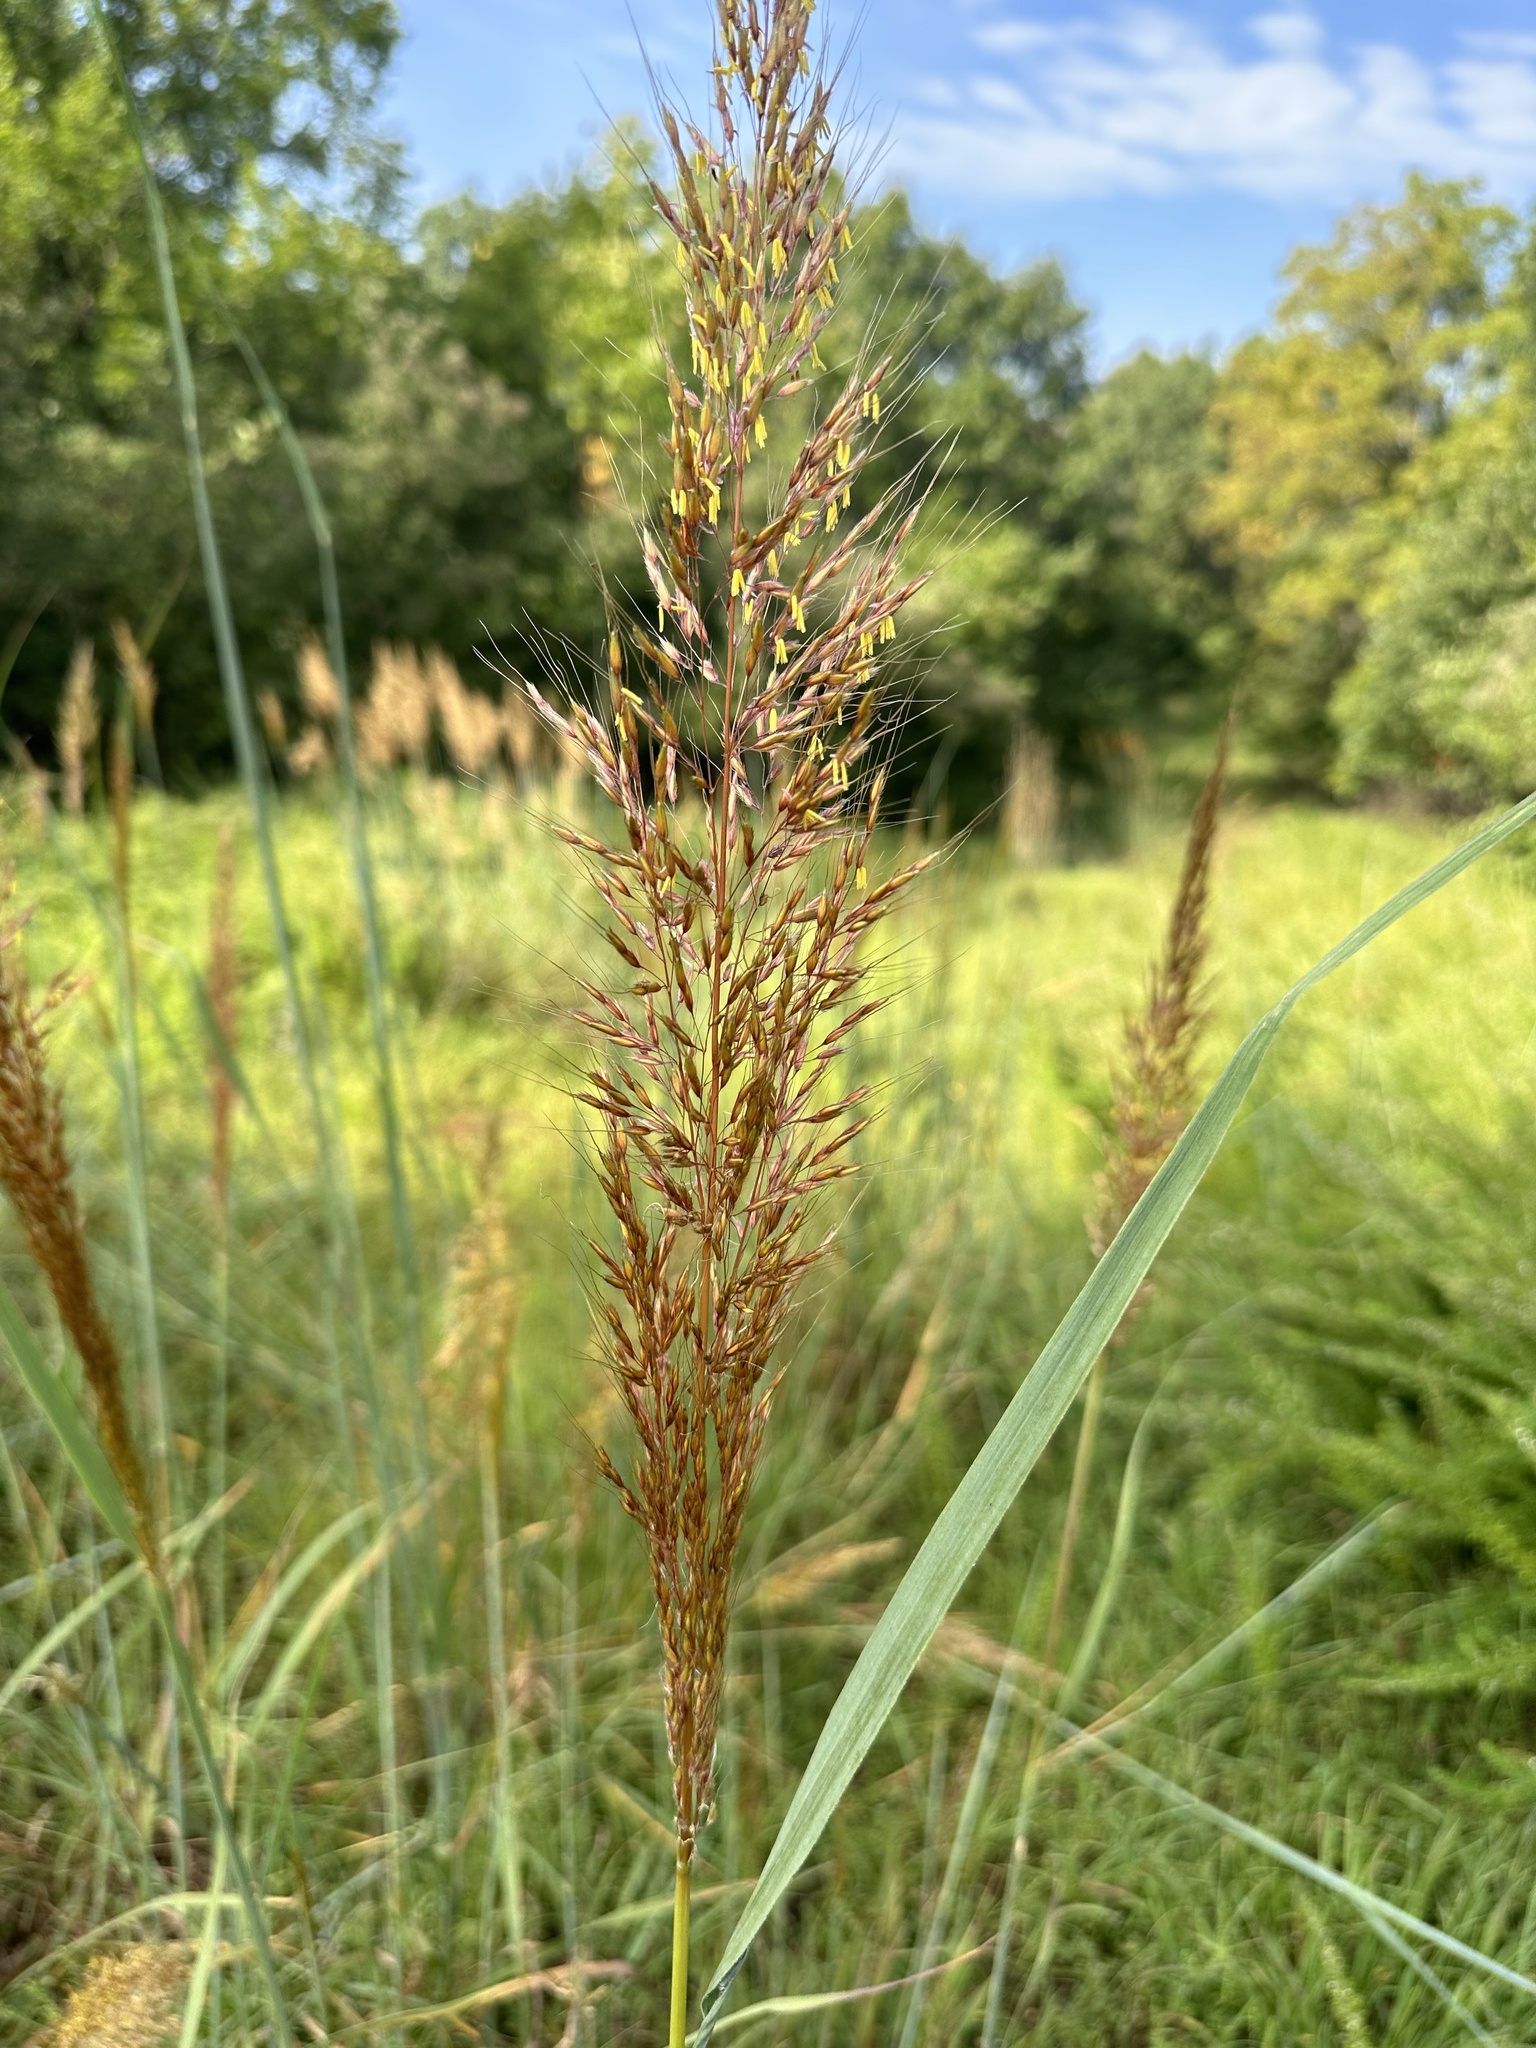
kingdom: Plantae
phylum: Tracheophyta
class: Liliopsida
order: Poales
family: Poaceae
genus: Sorghastrum
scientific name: Sorghastrum nutans
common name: Indian grass
